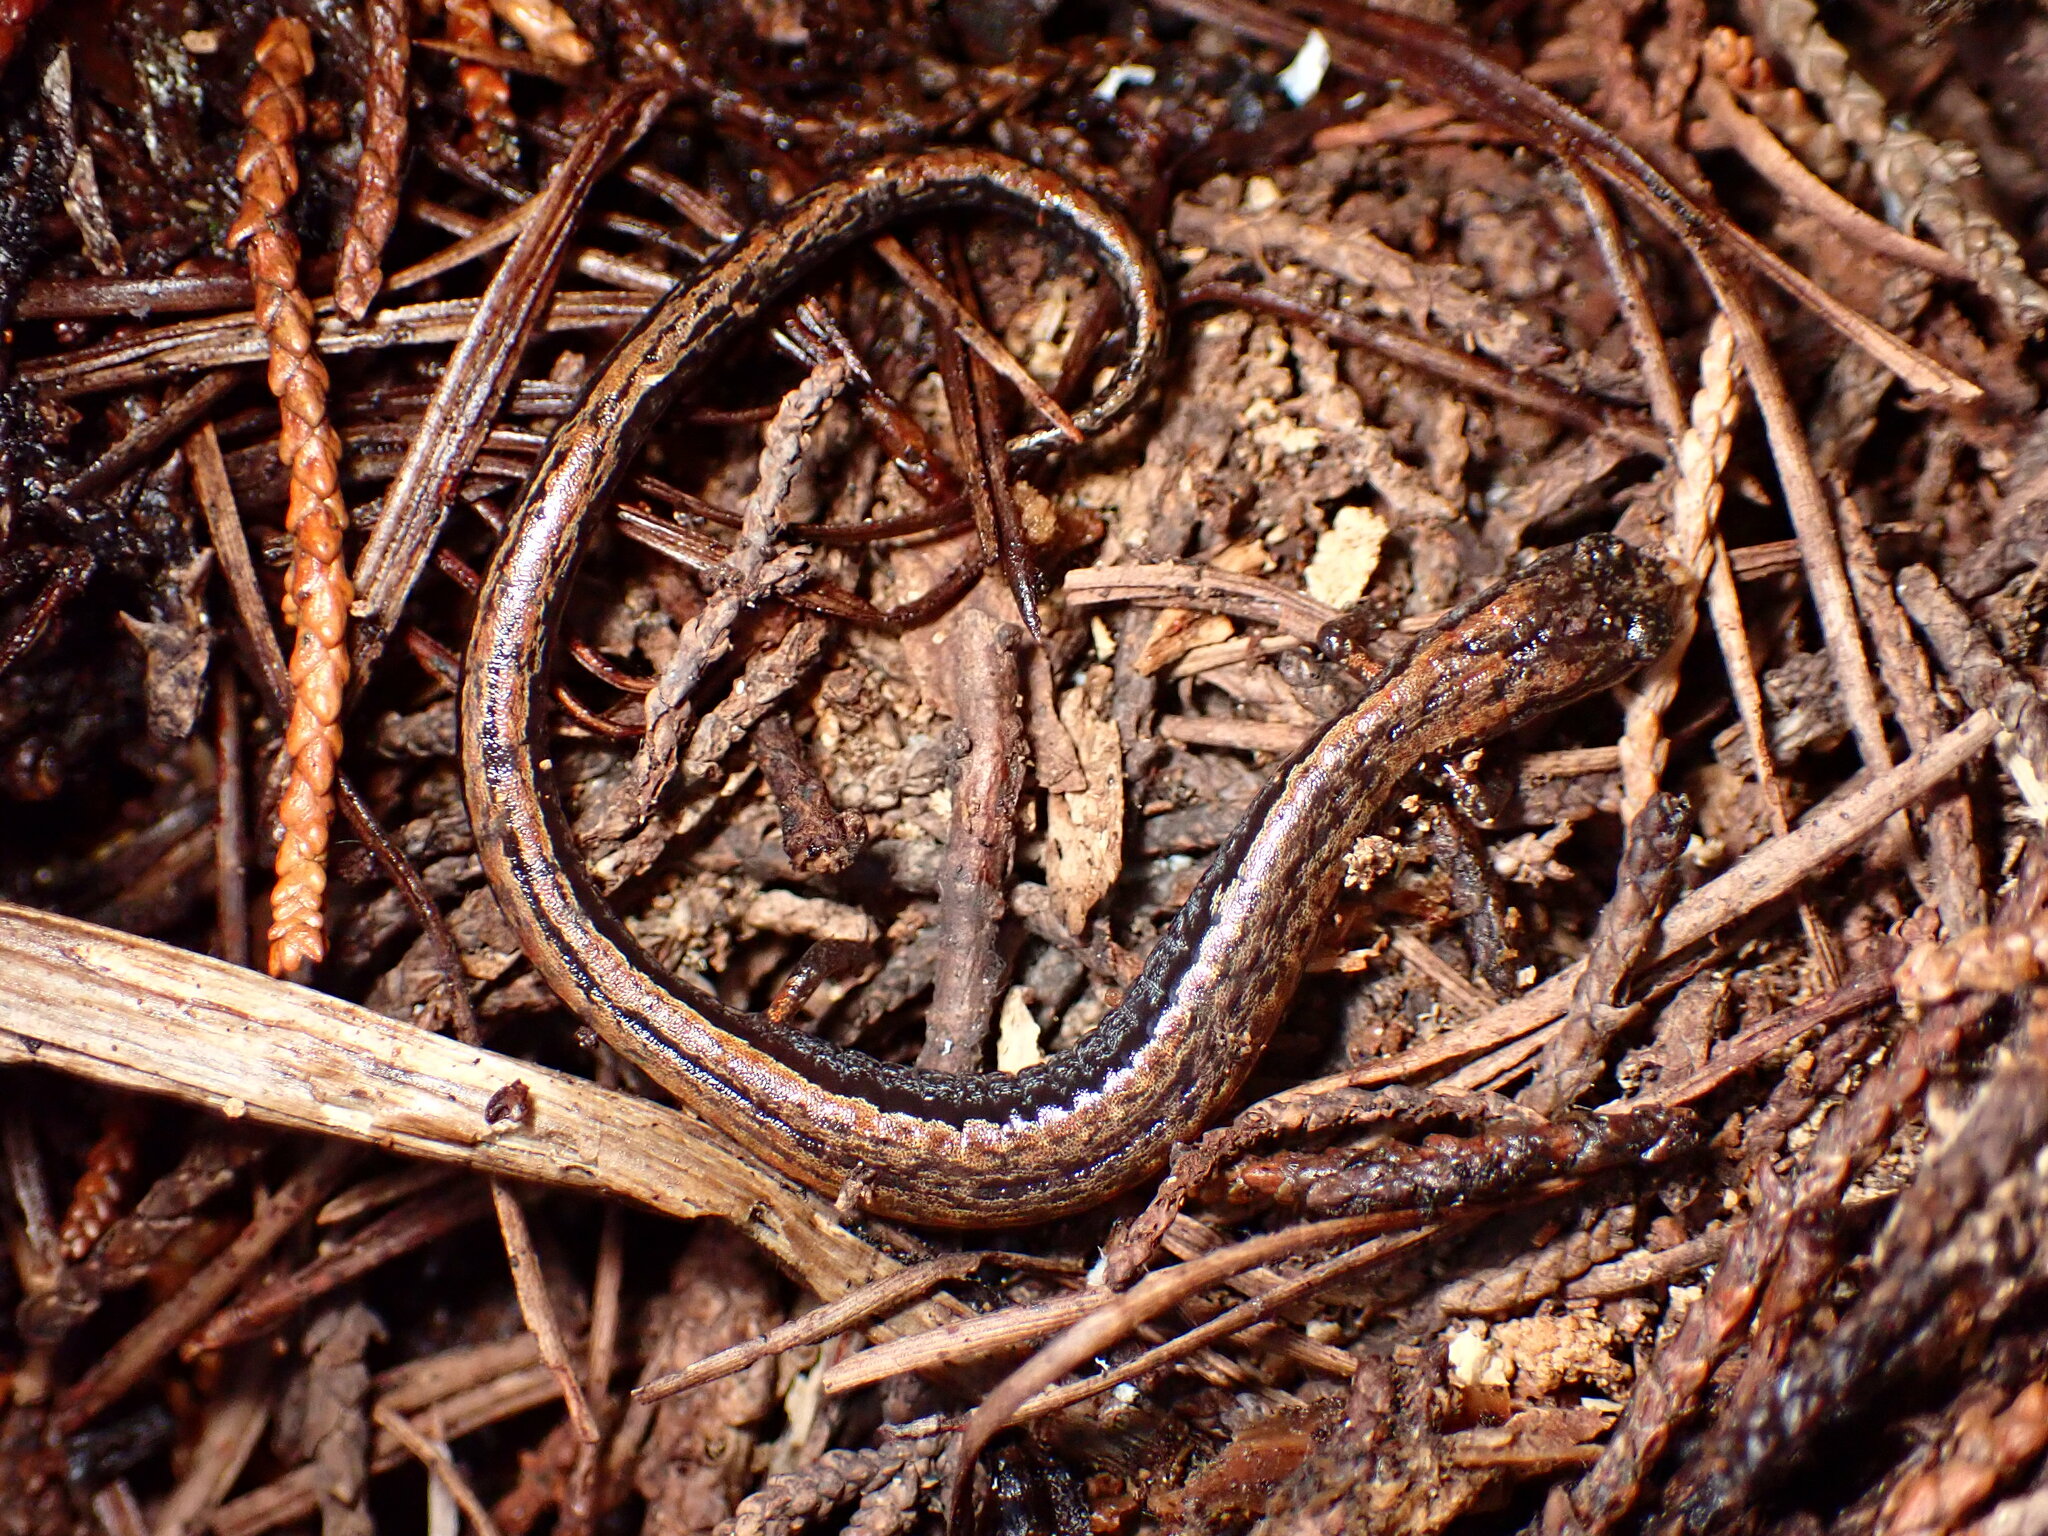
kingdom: Animalia
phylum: Chordata
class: Amphibia
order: Caudata
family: Plethodontidae
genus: Batrachoseps
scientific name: Batrachoseps attenuatus
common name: California slender salamander
